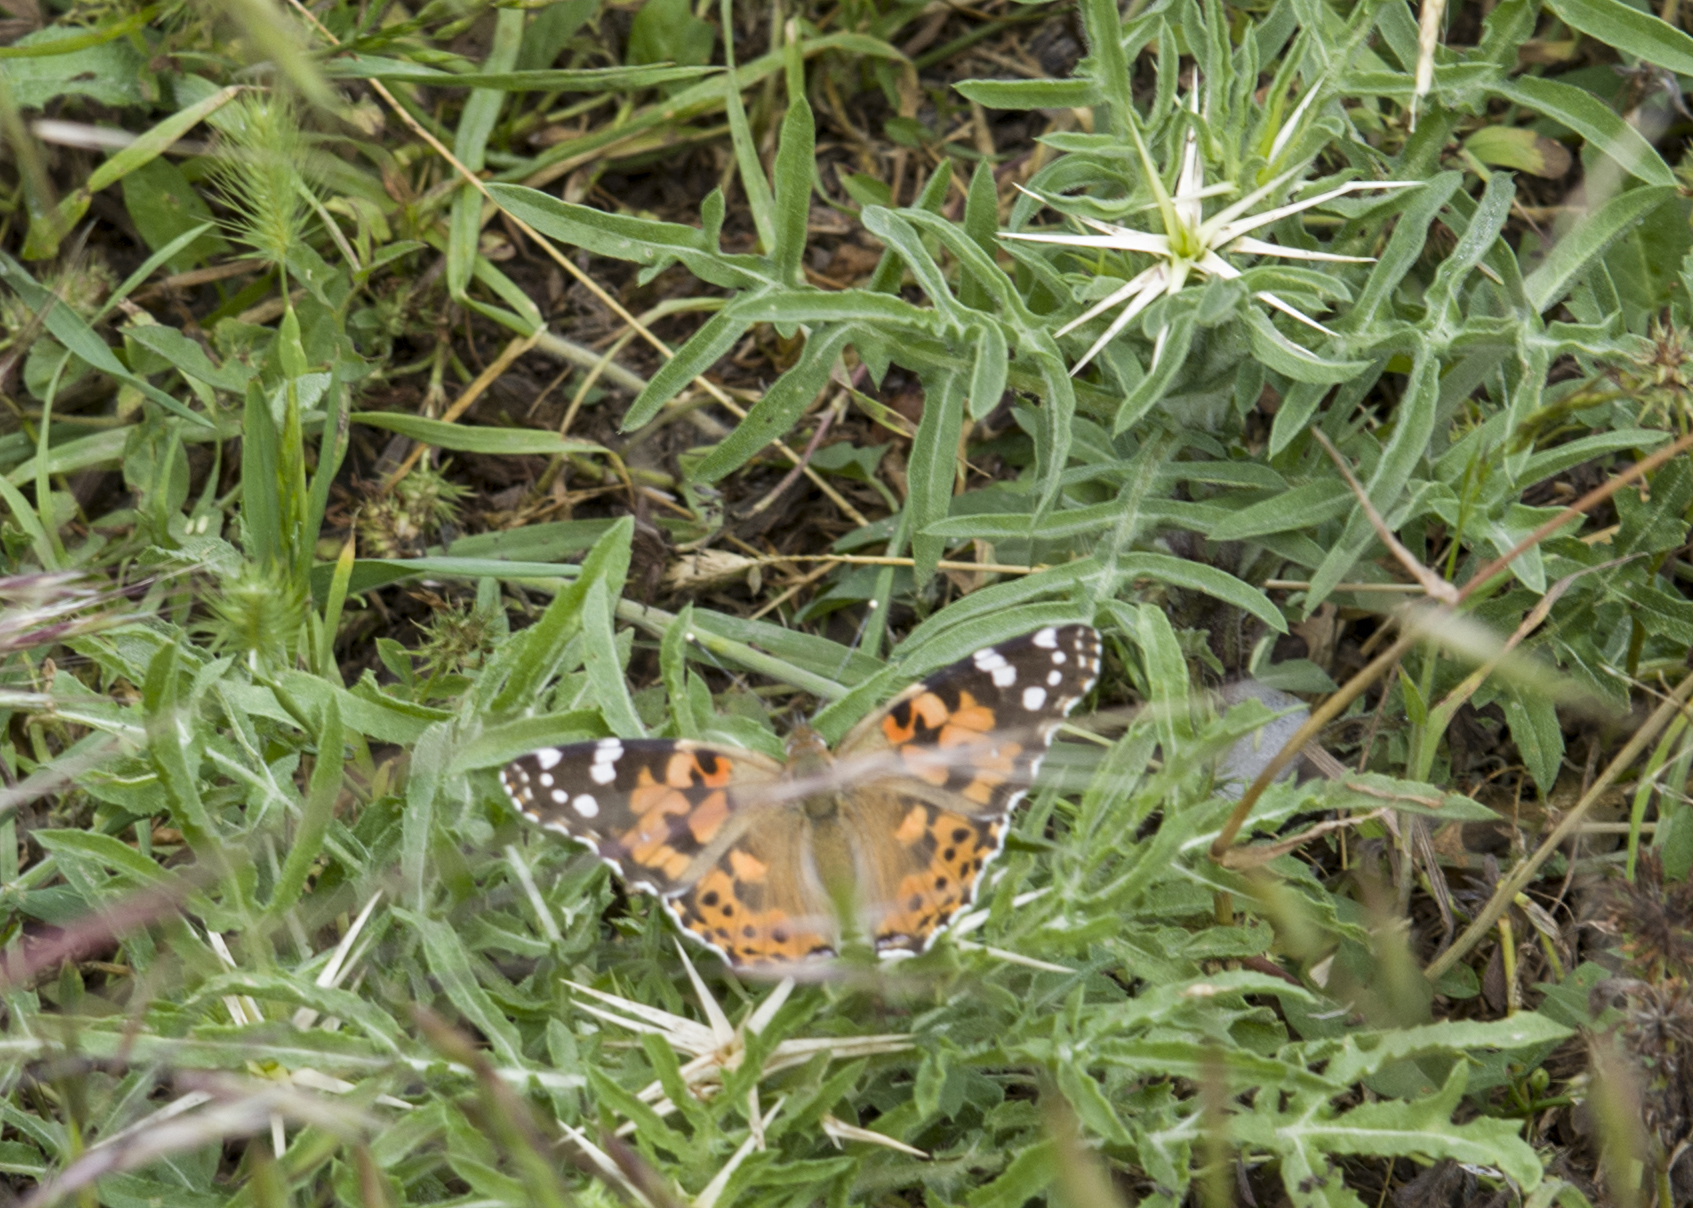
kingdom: Animalia
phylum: Arthropoda
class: Insecta
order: Lepidoptera
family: Nymphalidae
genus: Vanessa
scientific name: Vanessa cardui
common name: Painted lady
